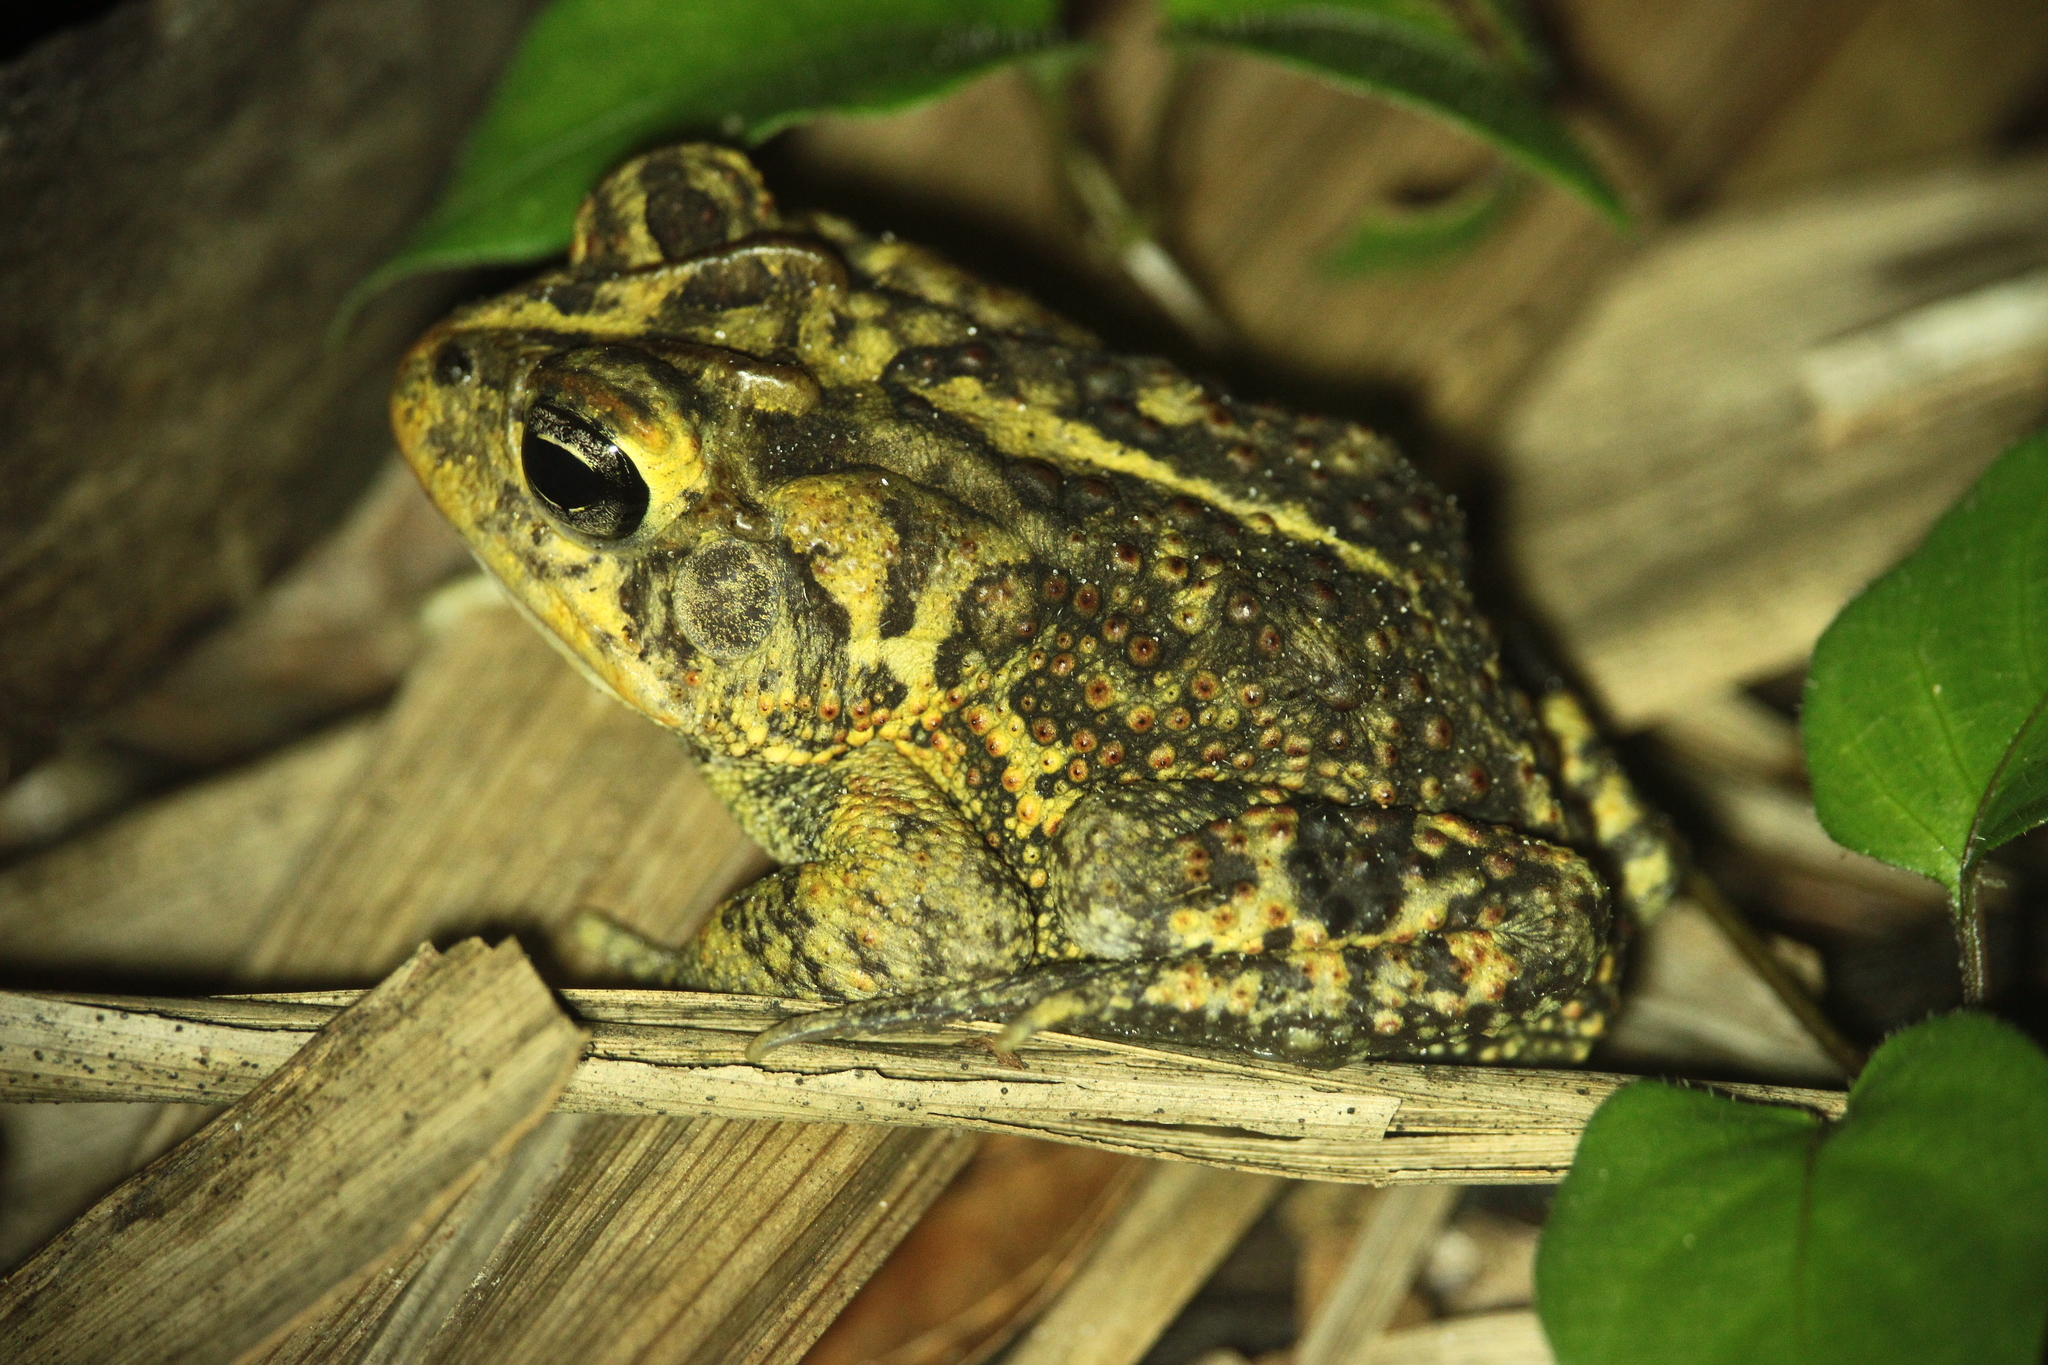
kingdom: Animalia
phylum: Chordata
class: Amphibia
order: Anura
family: Bufonidae
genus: Anaxyrus
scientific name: Anaxyrus terrestris
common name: Southern toad
